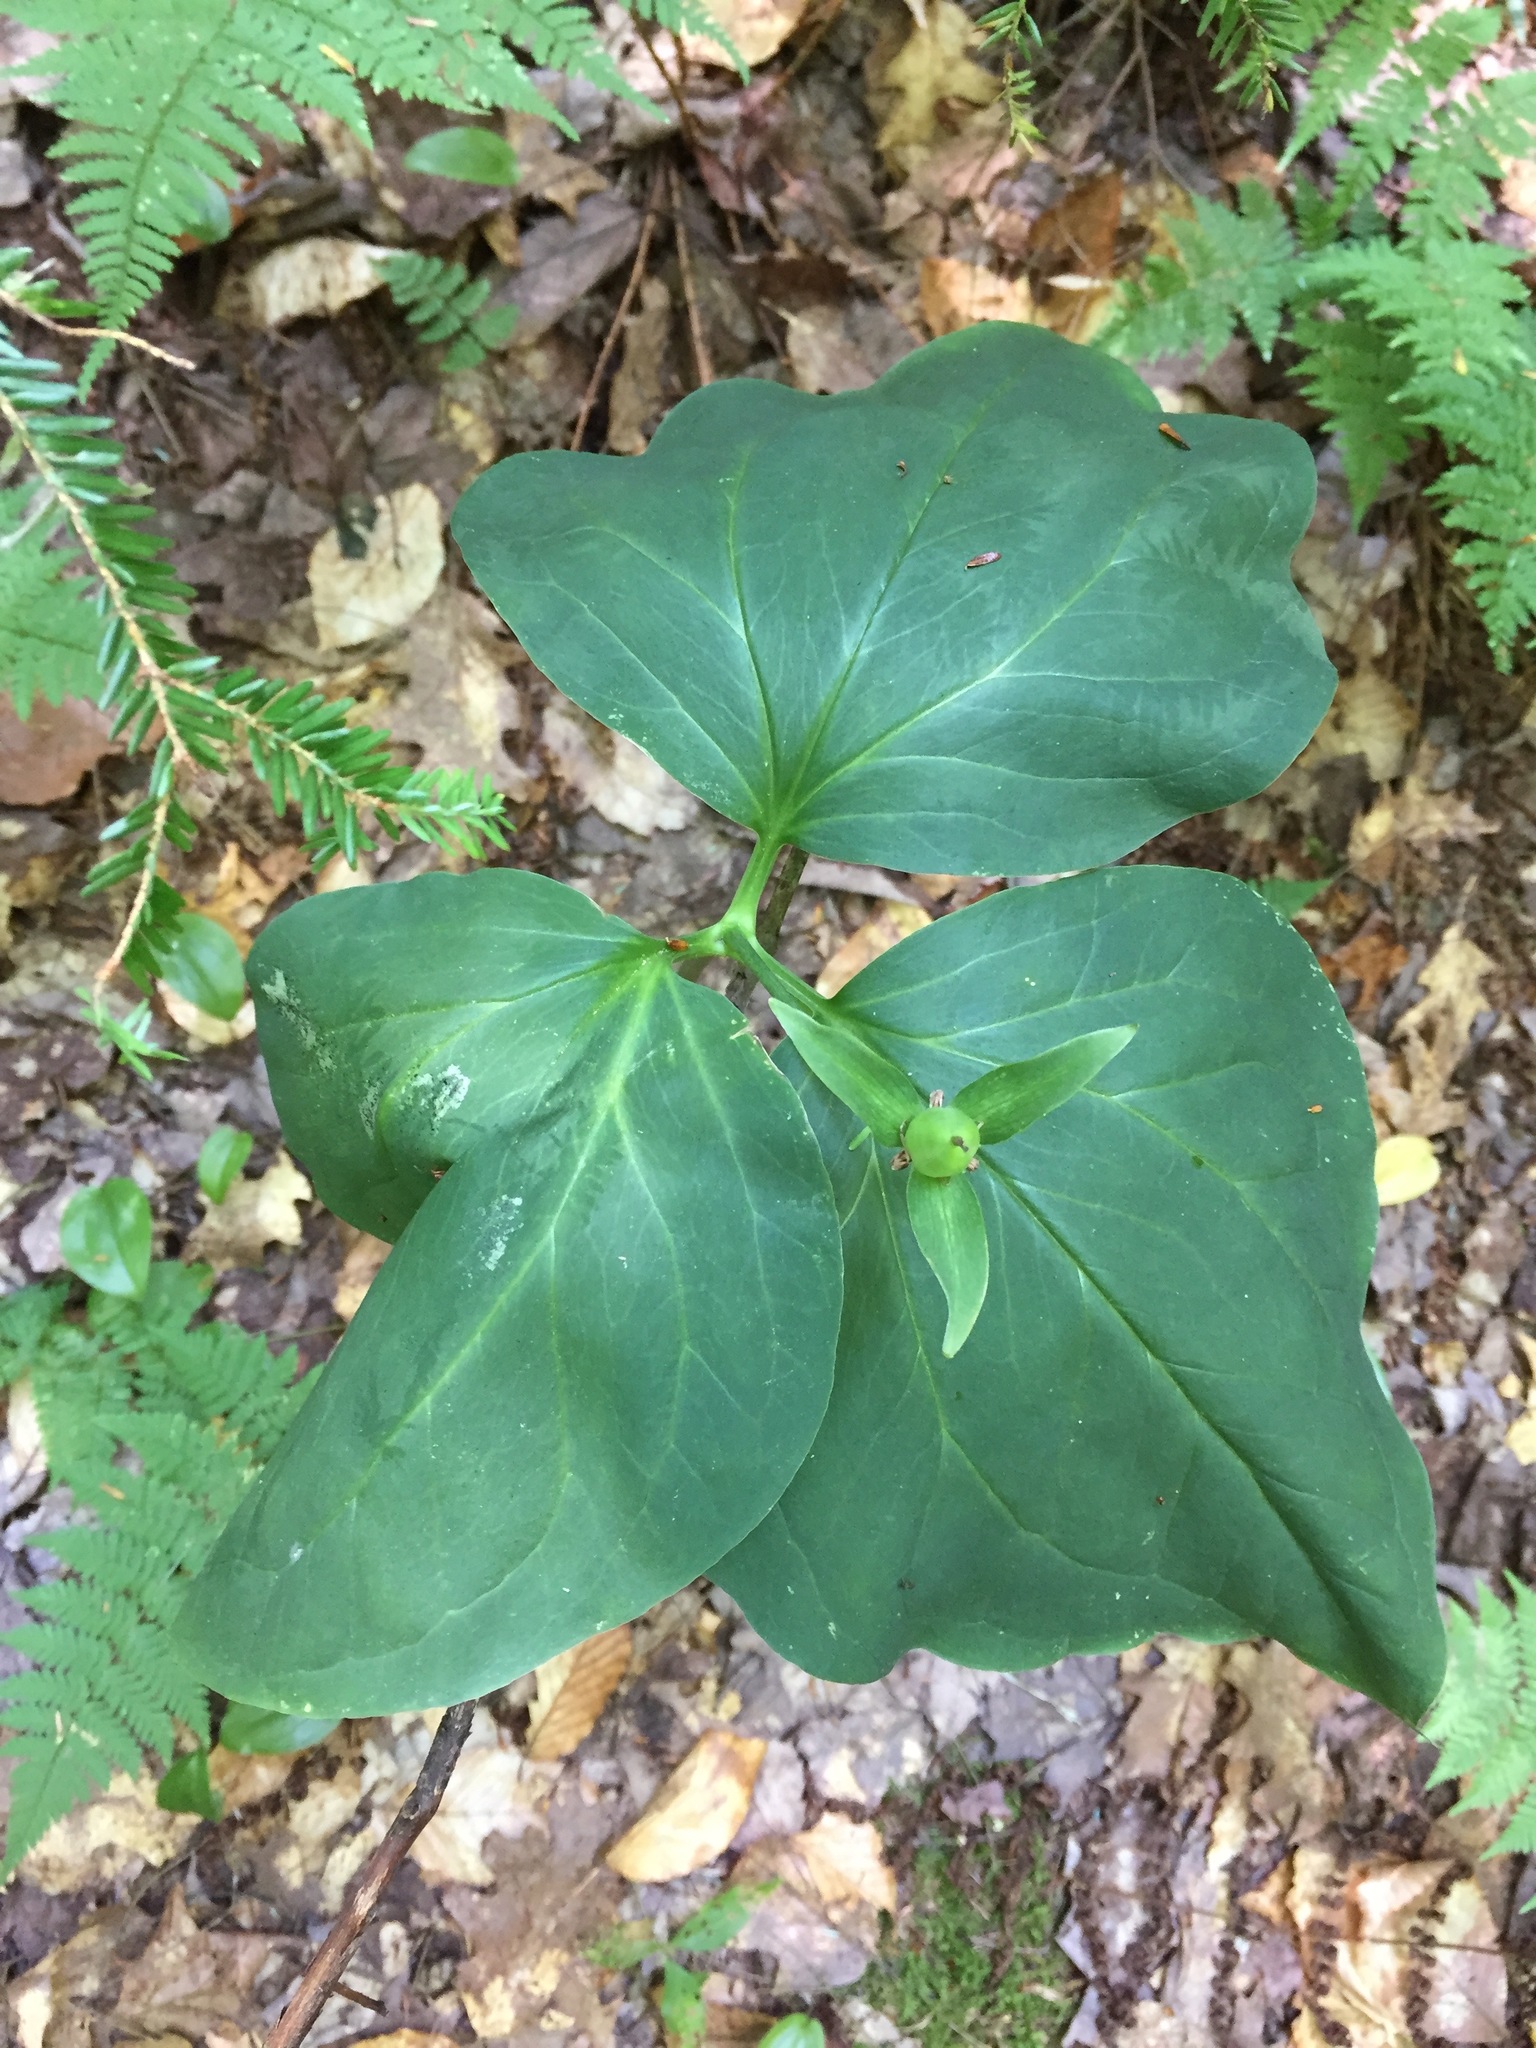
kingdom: Plantae
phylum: Tracheophyta
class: Liliopsida
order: Liliales
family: Melanthiaceae
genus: Trillium
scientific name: Trillium undulatum
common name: Paint trillium
